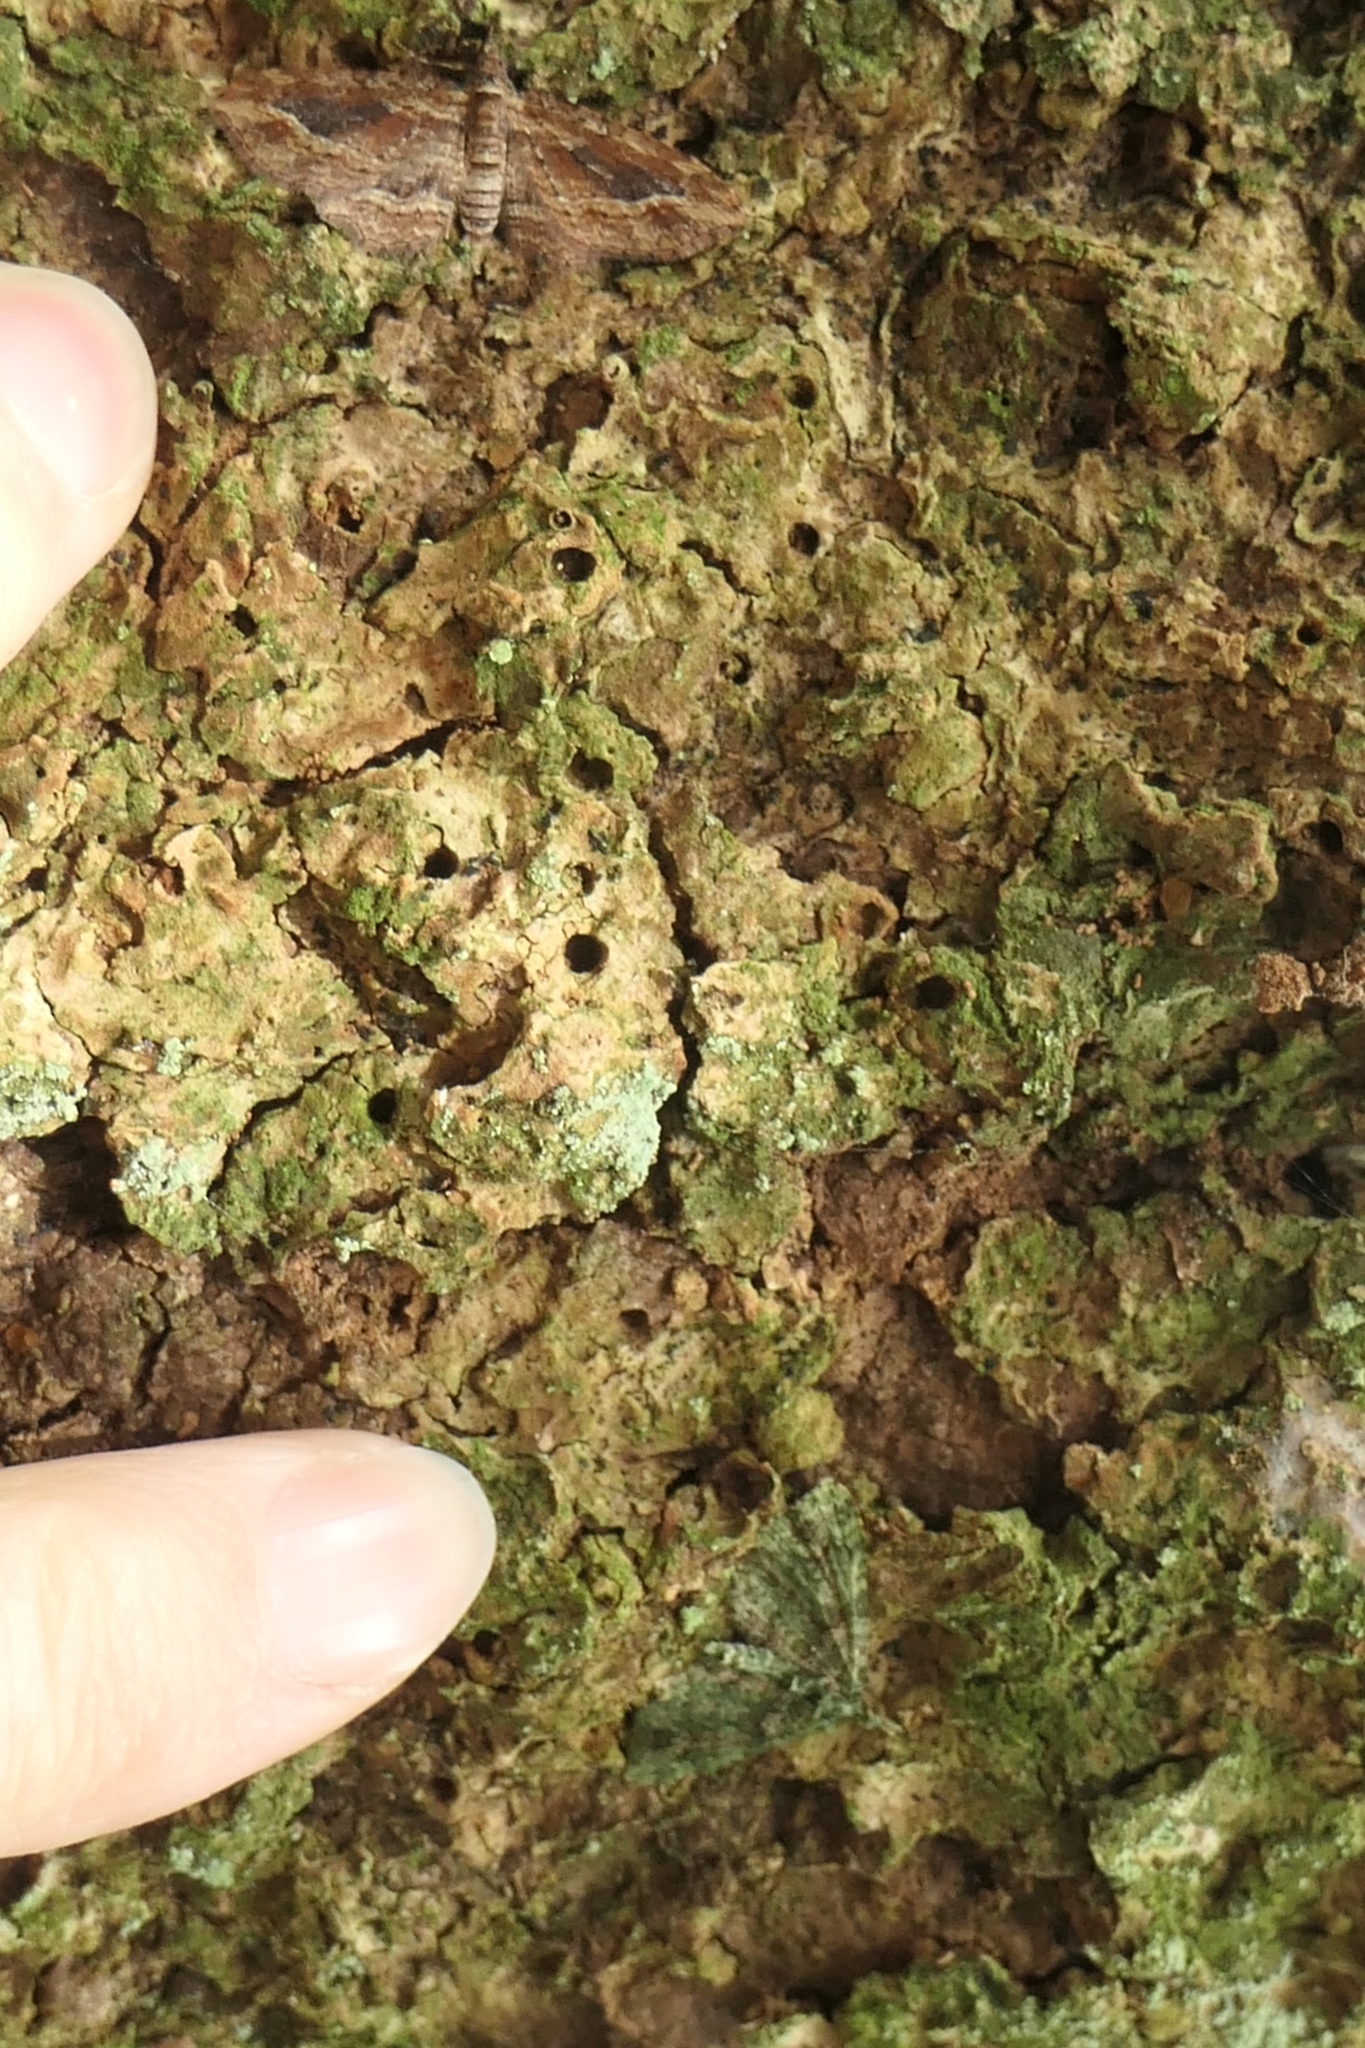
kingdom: Animalia
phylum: Arthropoda
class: Insecta
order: Lepidoptera
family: Geometridae
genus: Pasiphila
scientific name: Pasiphila muscosata
